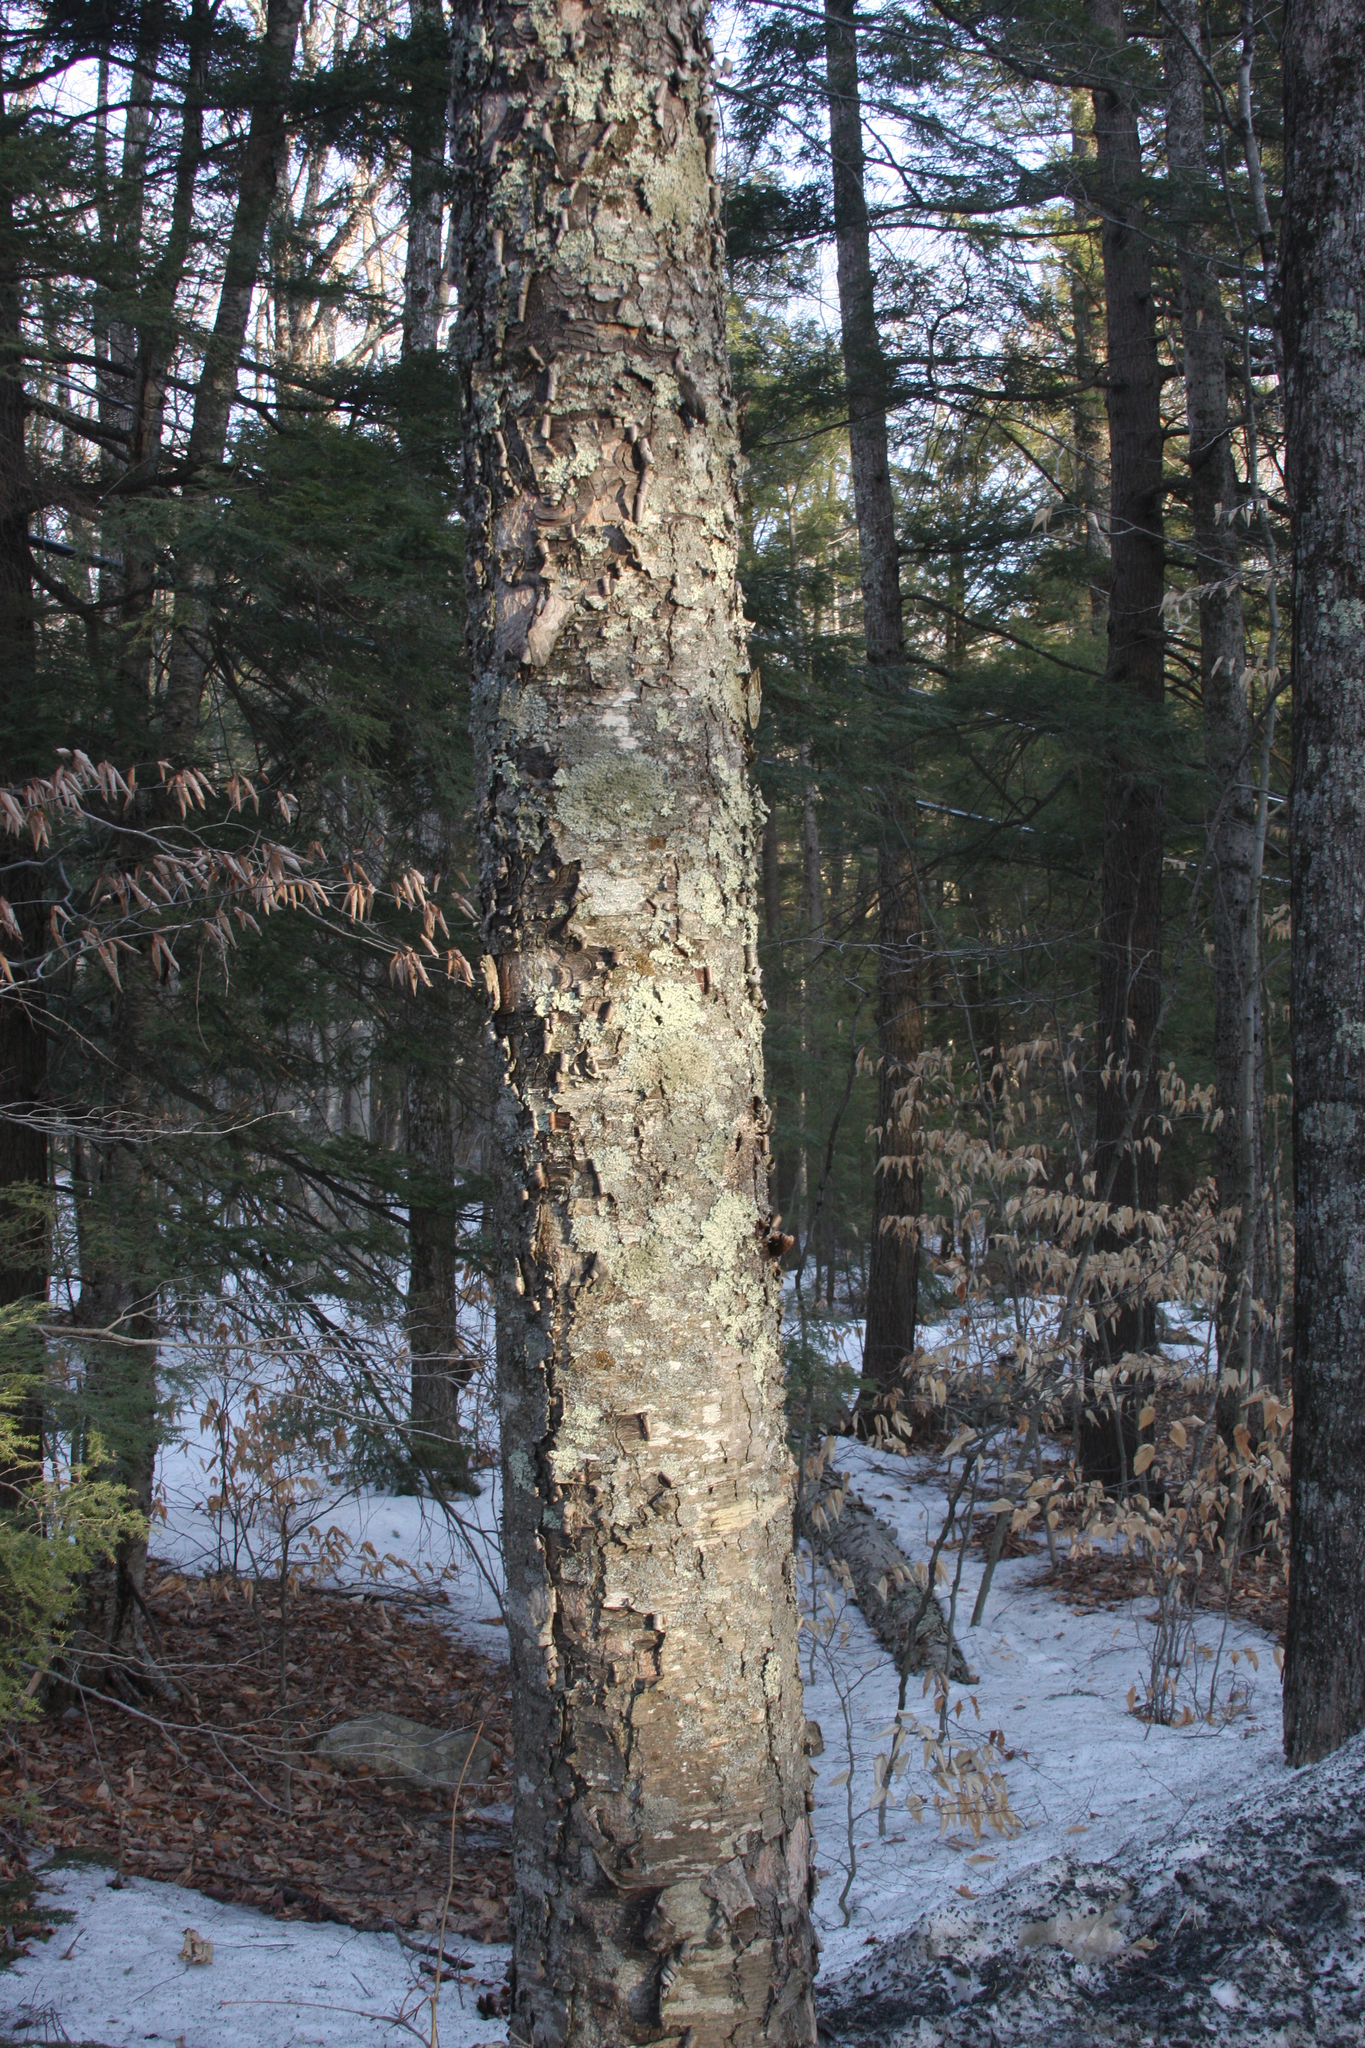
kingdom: Plantae
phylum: Tracheophyta
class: Magnoliopsida
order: Fagales
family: Betulaceae
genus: Betula
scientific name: Betula alleghaniensis
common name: Yellow birch
